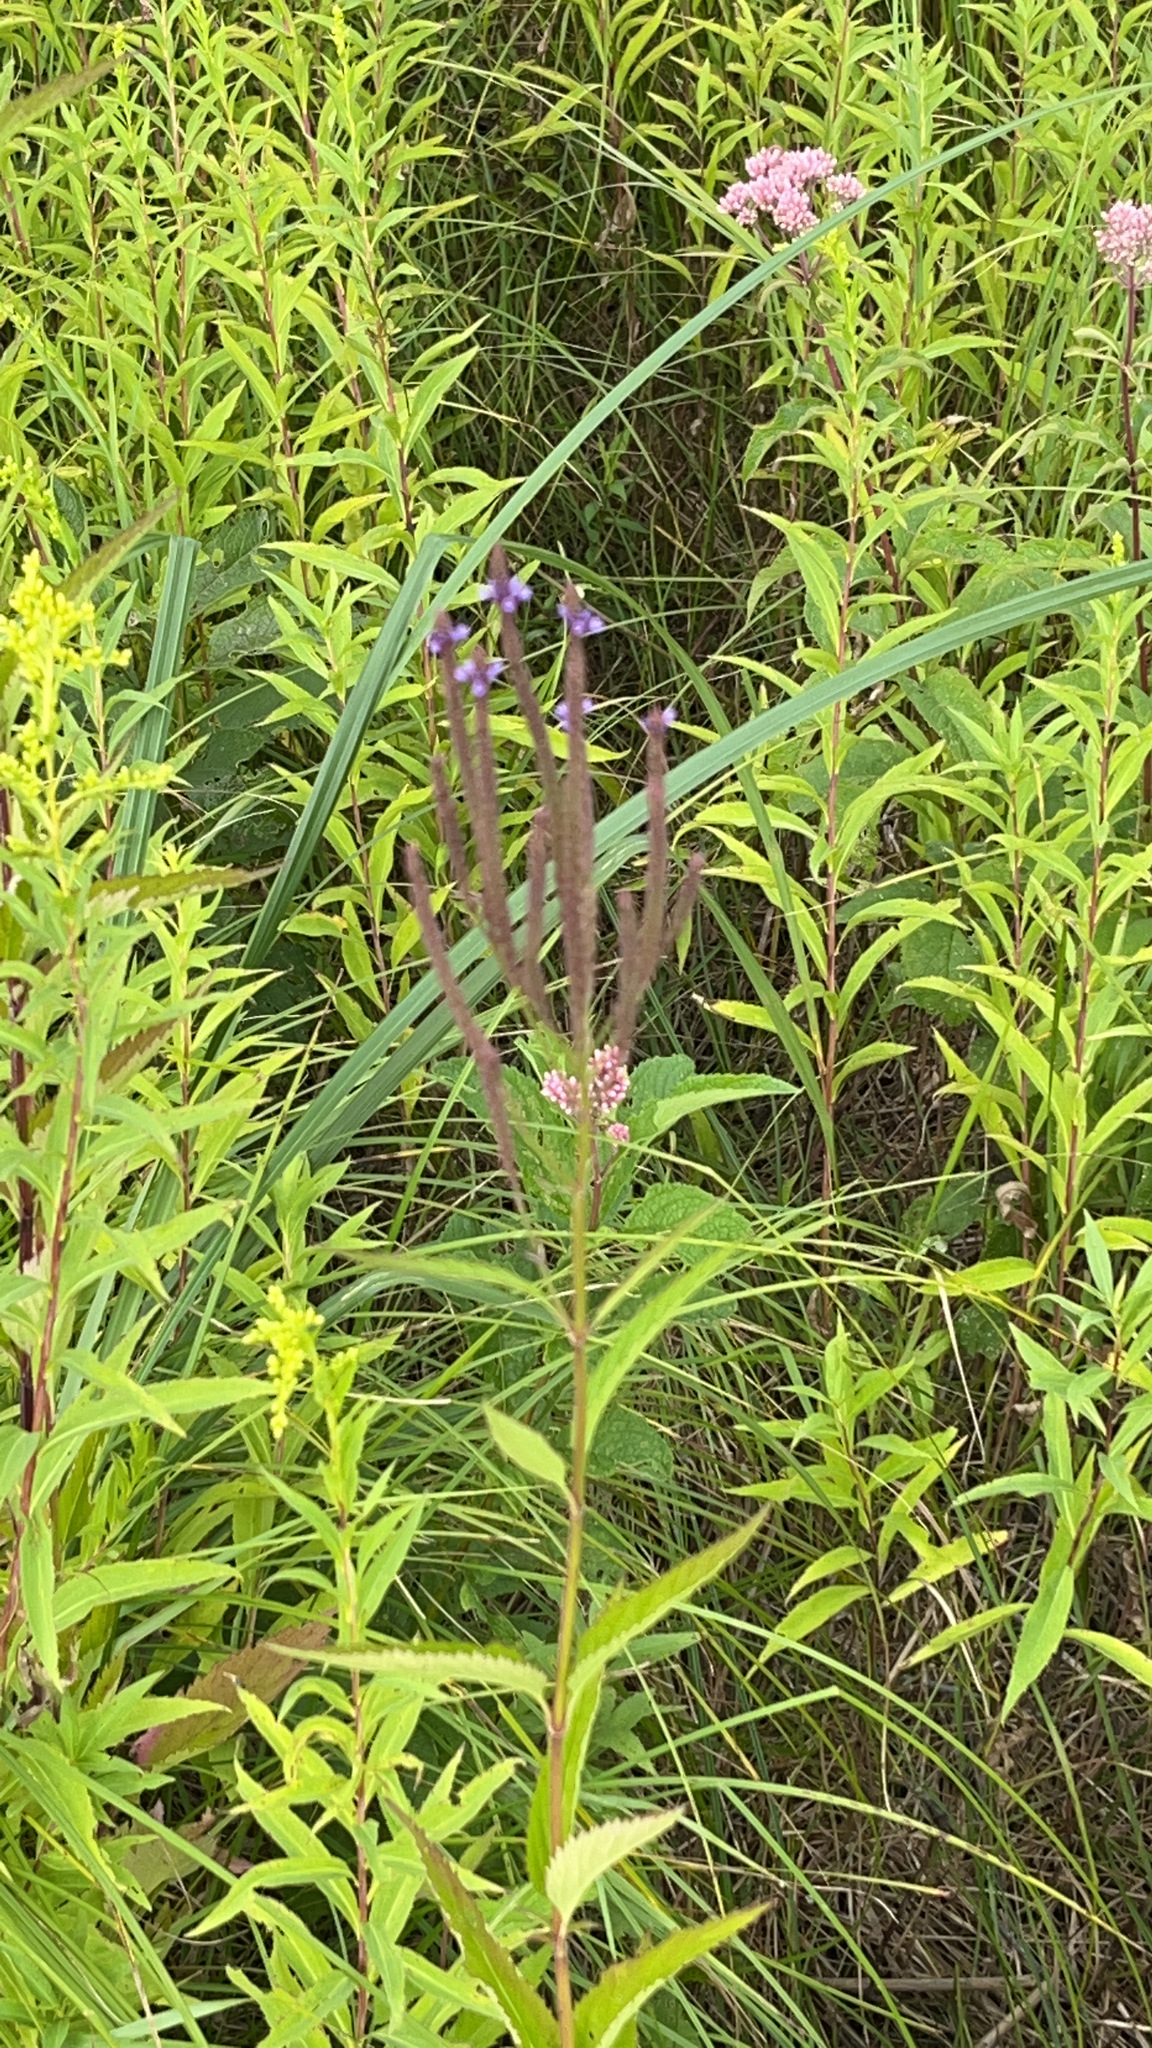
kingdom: Plantae
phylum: Tracheophyta
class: Magnoliopsida
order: Lamiales
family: Verbenaceae
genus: Verbena
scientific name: Verbena hastata
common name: American blue vervain
